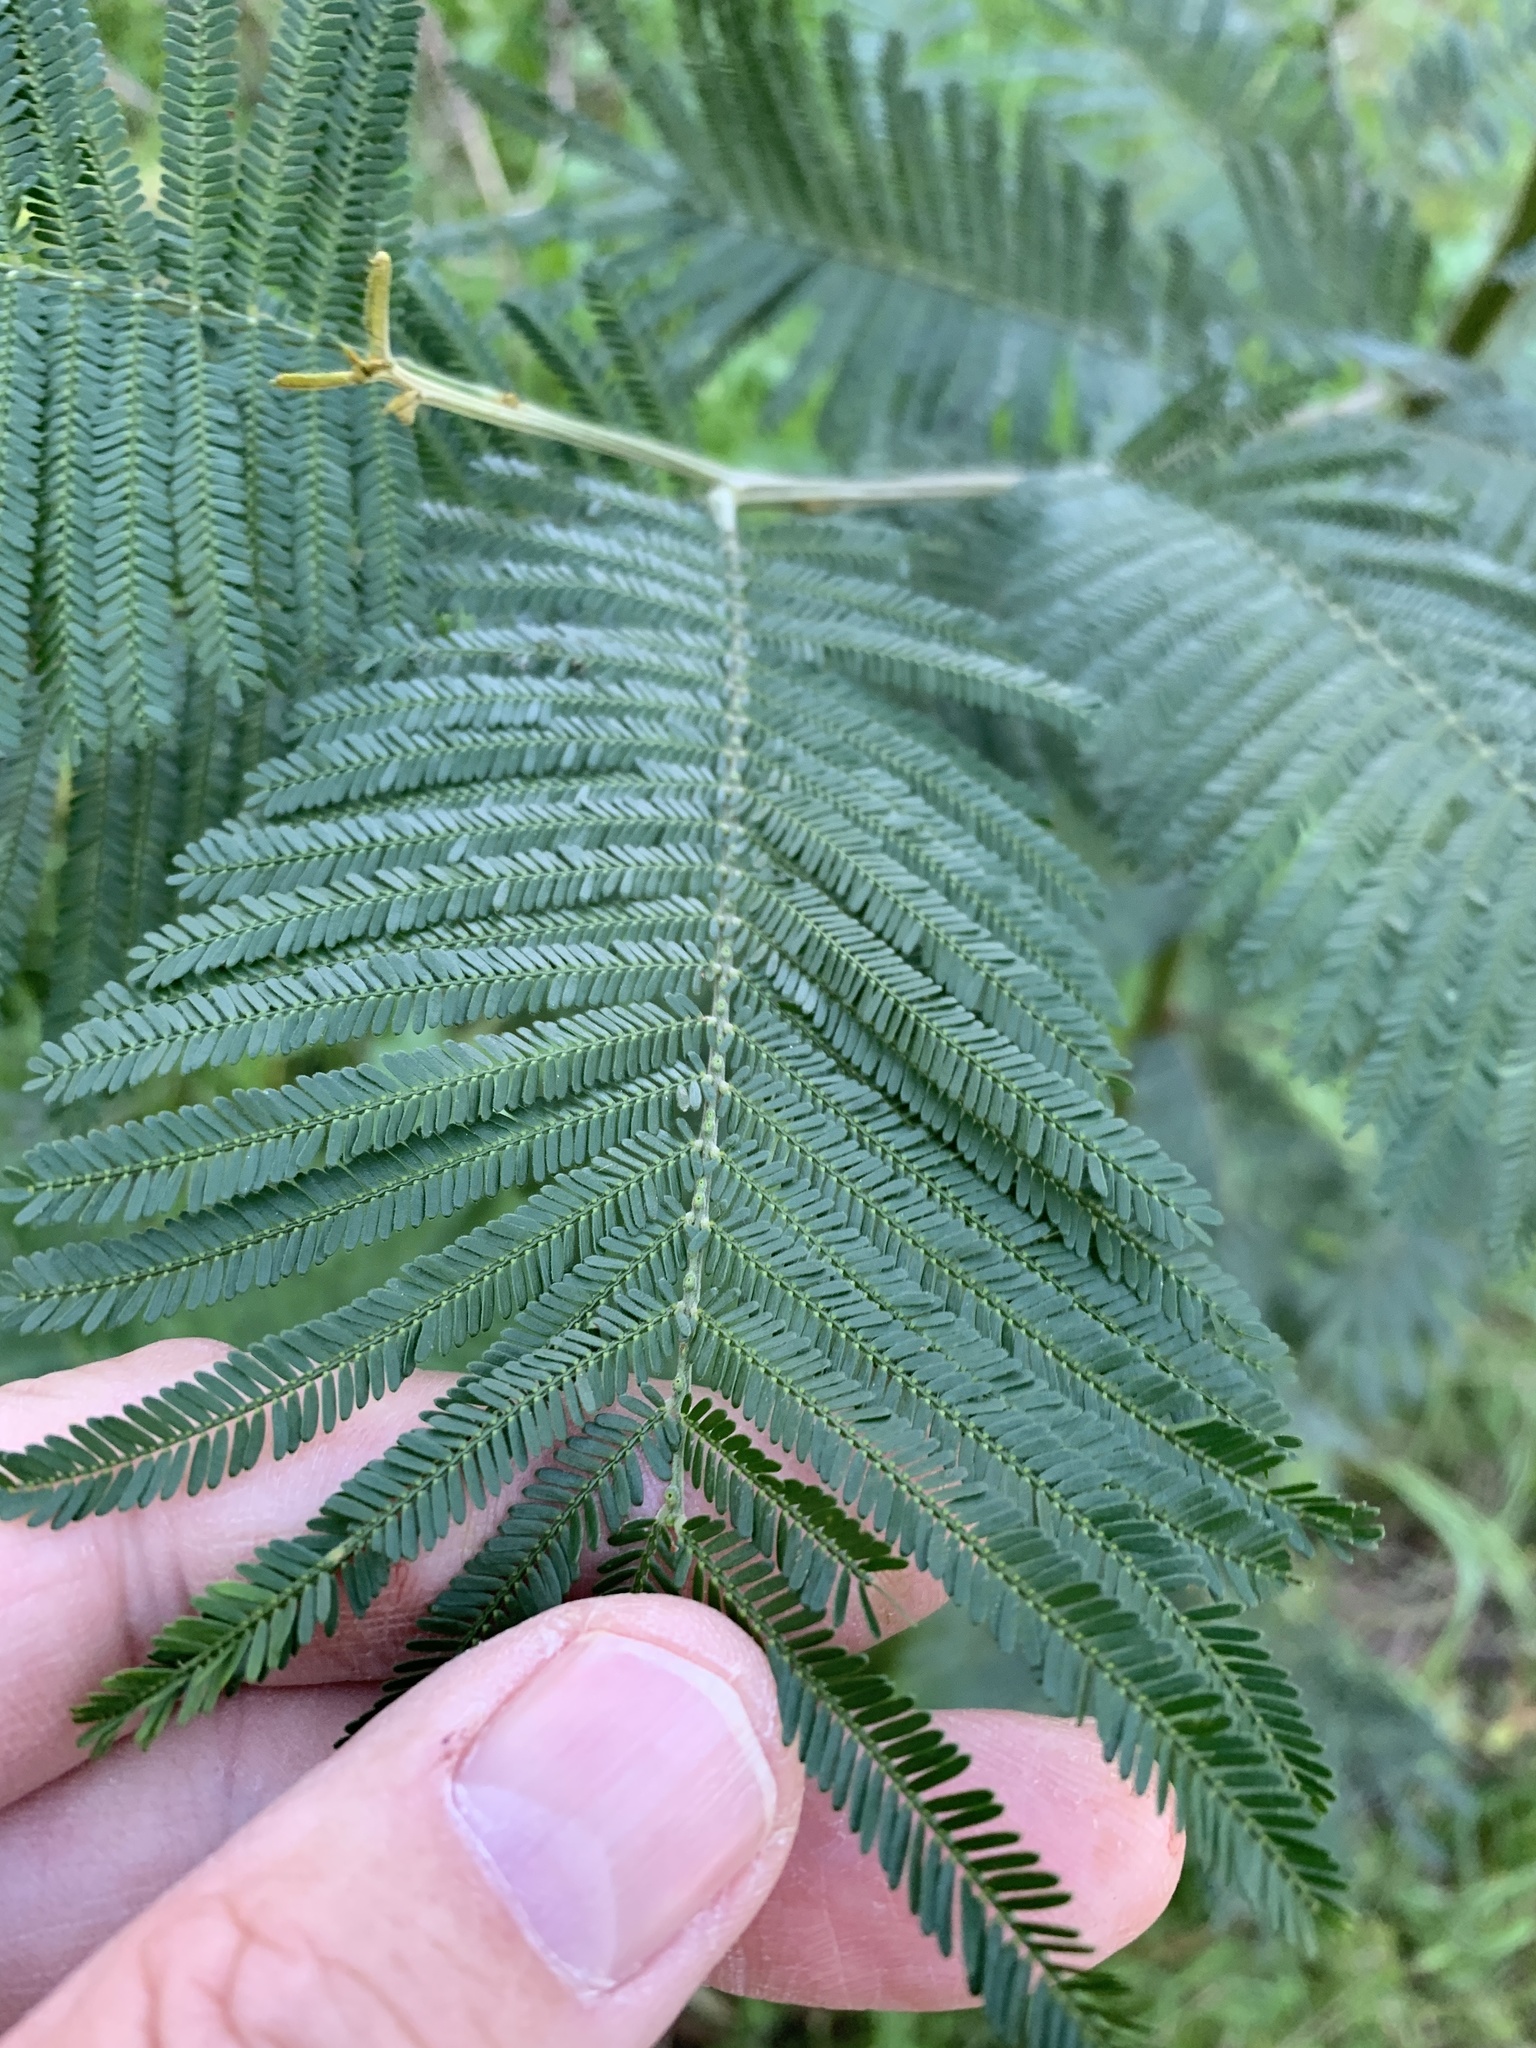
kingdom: Plantae
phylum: Tracheophyta
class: Magnoliopsida
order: Fabales
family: Fabaceae
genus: Acacia
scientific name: Acacia mearnsii
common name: Black wattle
